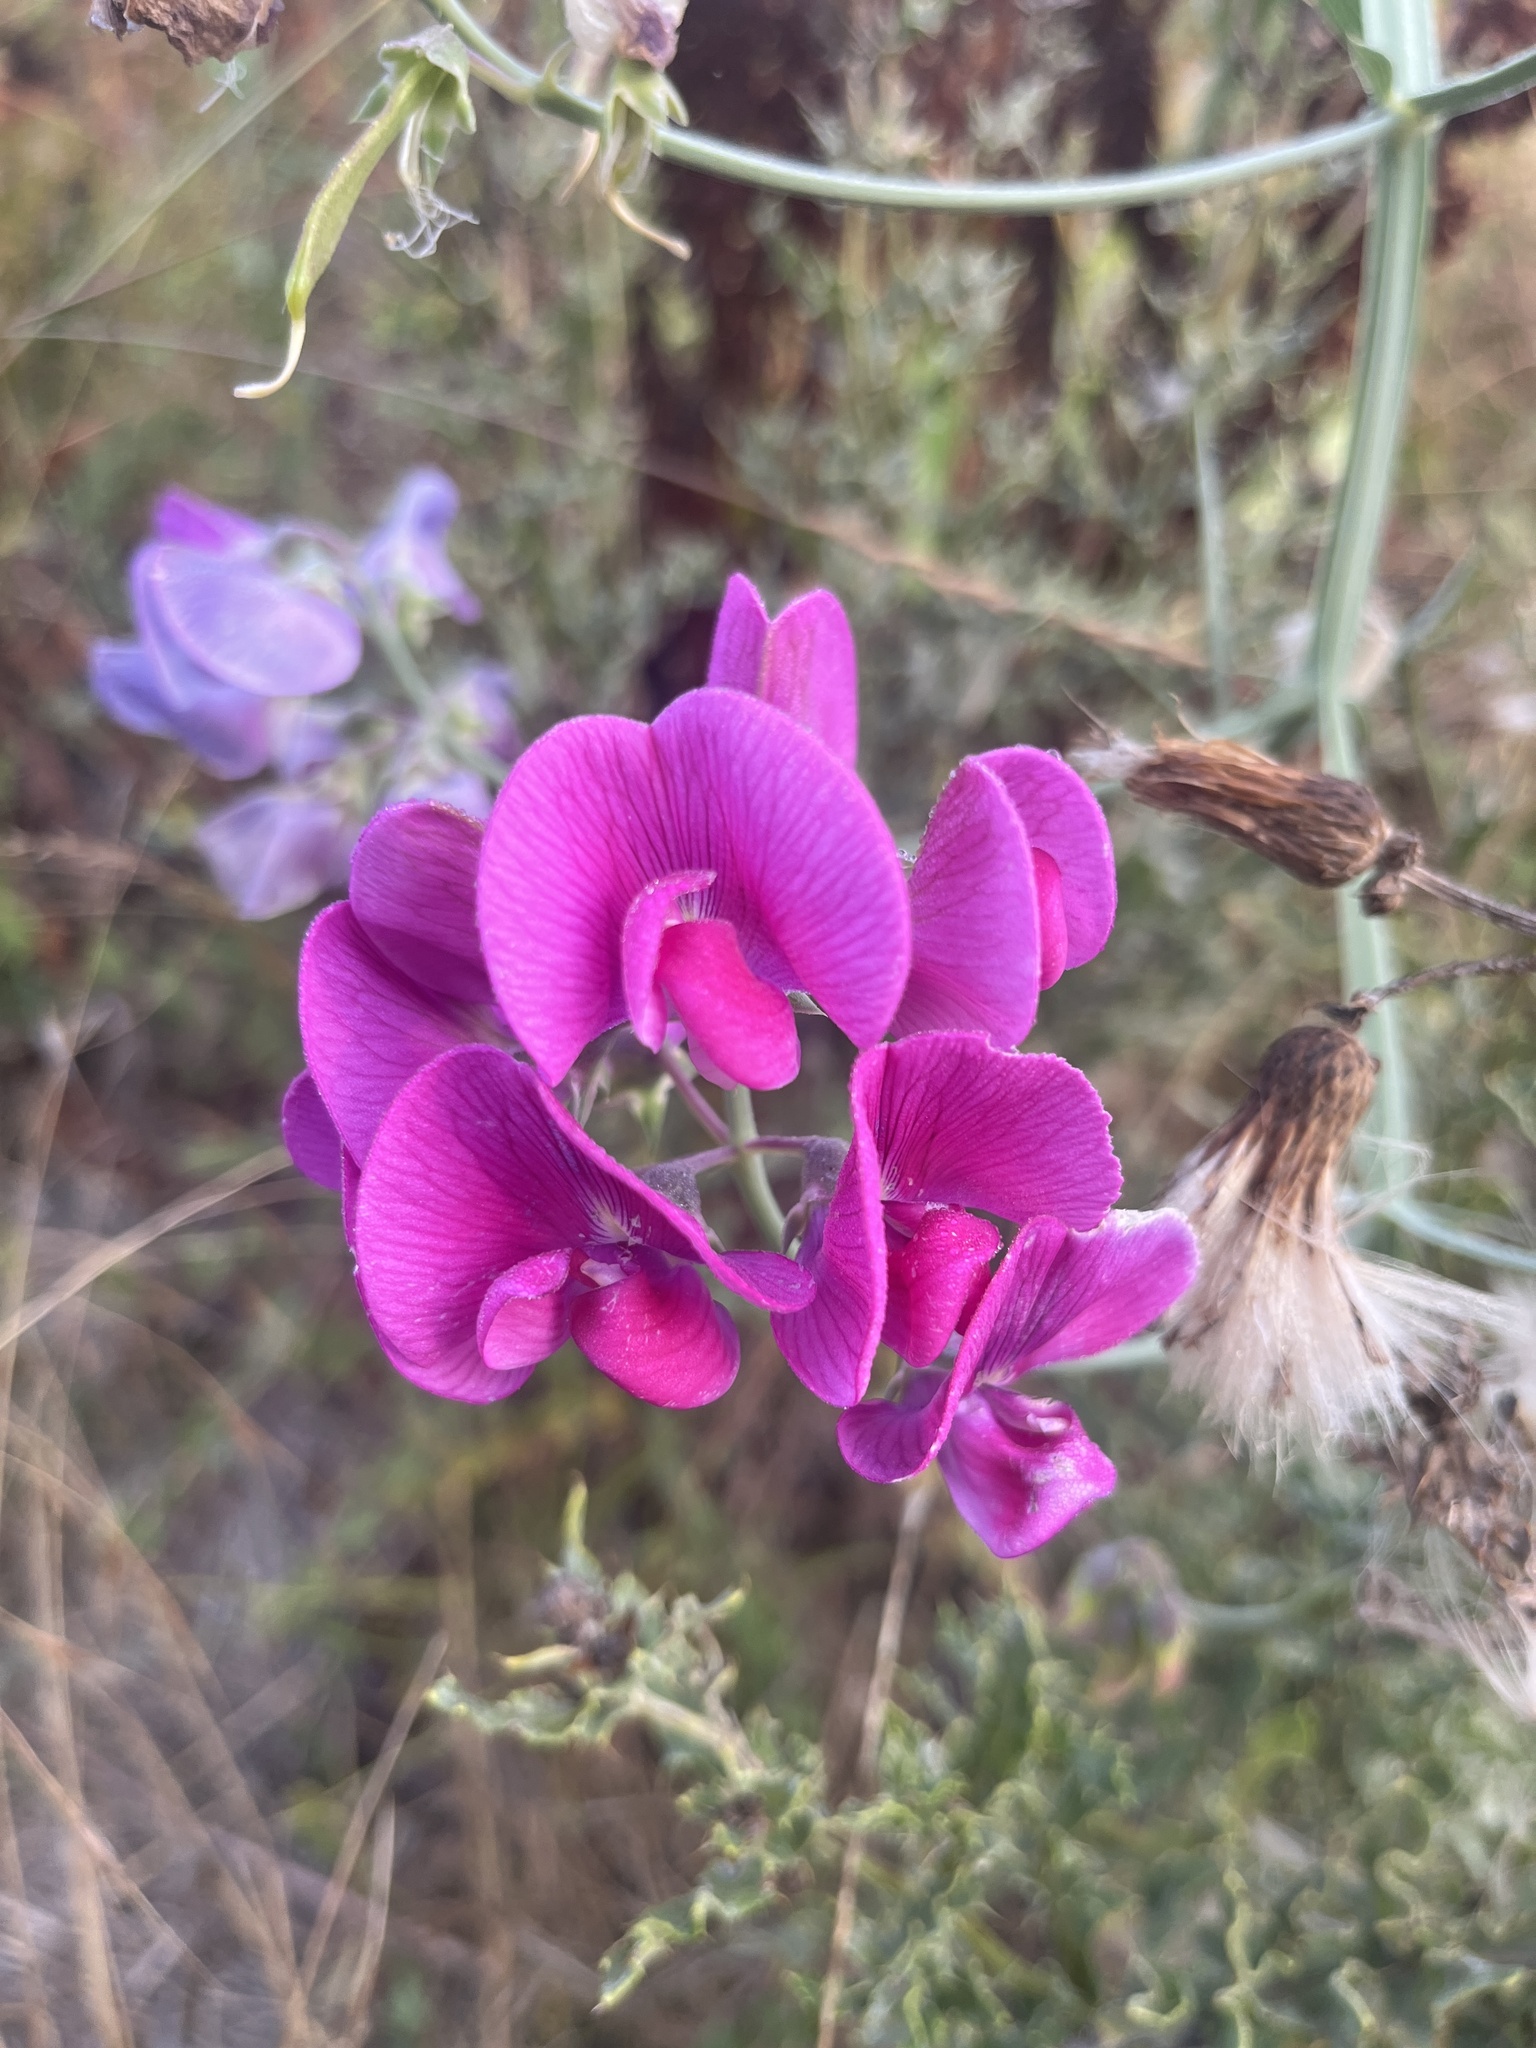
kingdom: Plantae
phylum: Tracheophyta
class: Magnoliopsida
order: Fabales
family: Fabaceae
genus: Lathyrus
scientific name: Lathyrus latifolius
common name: Perennial pea
